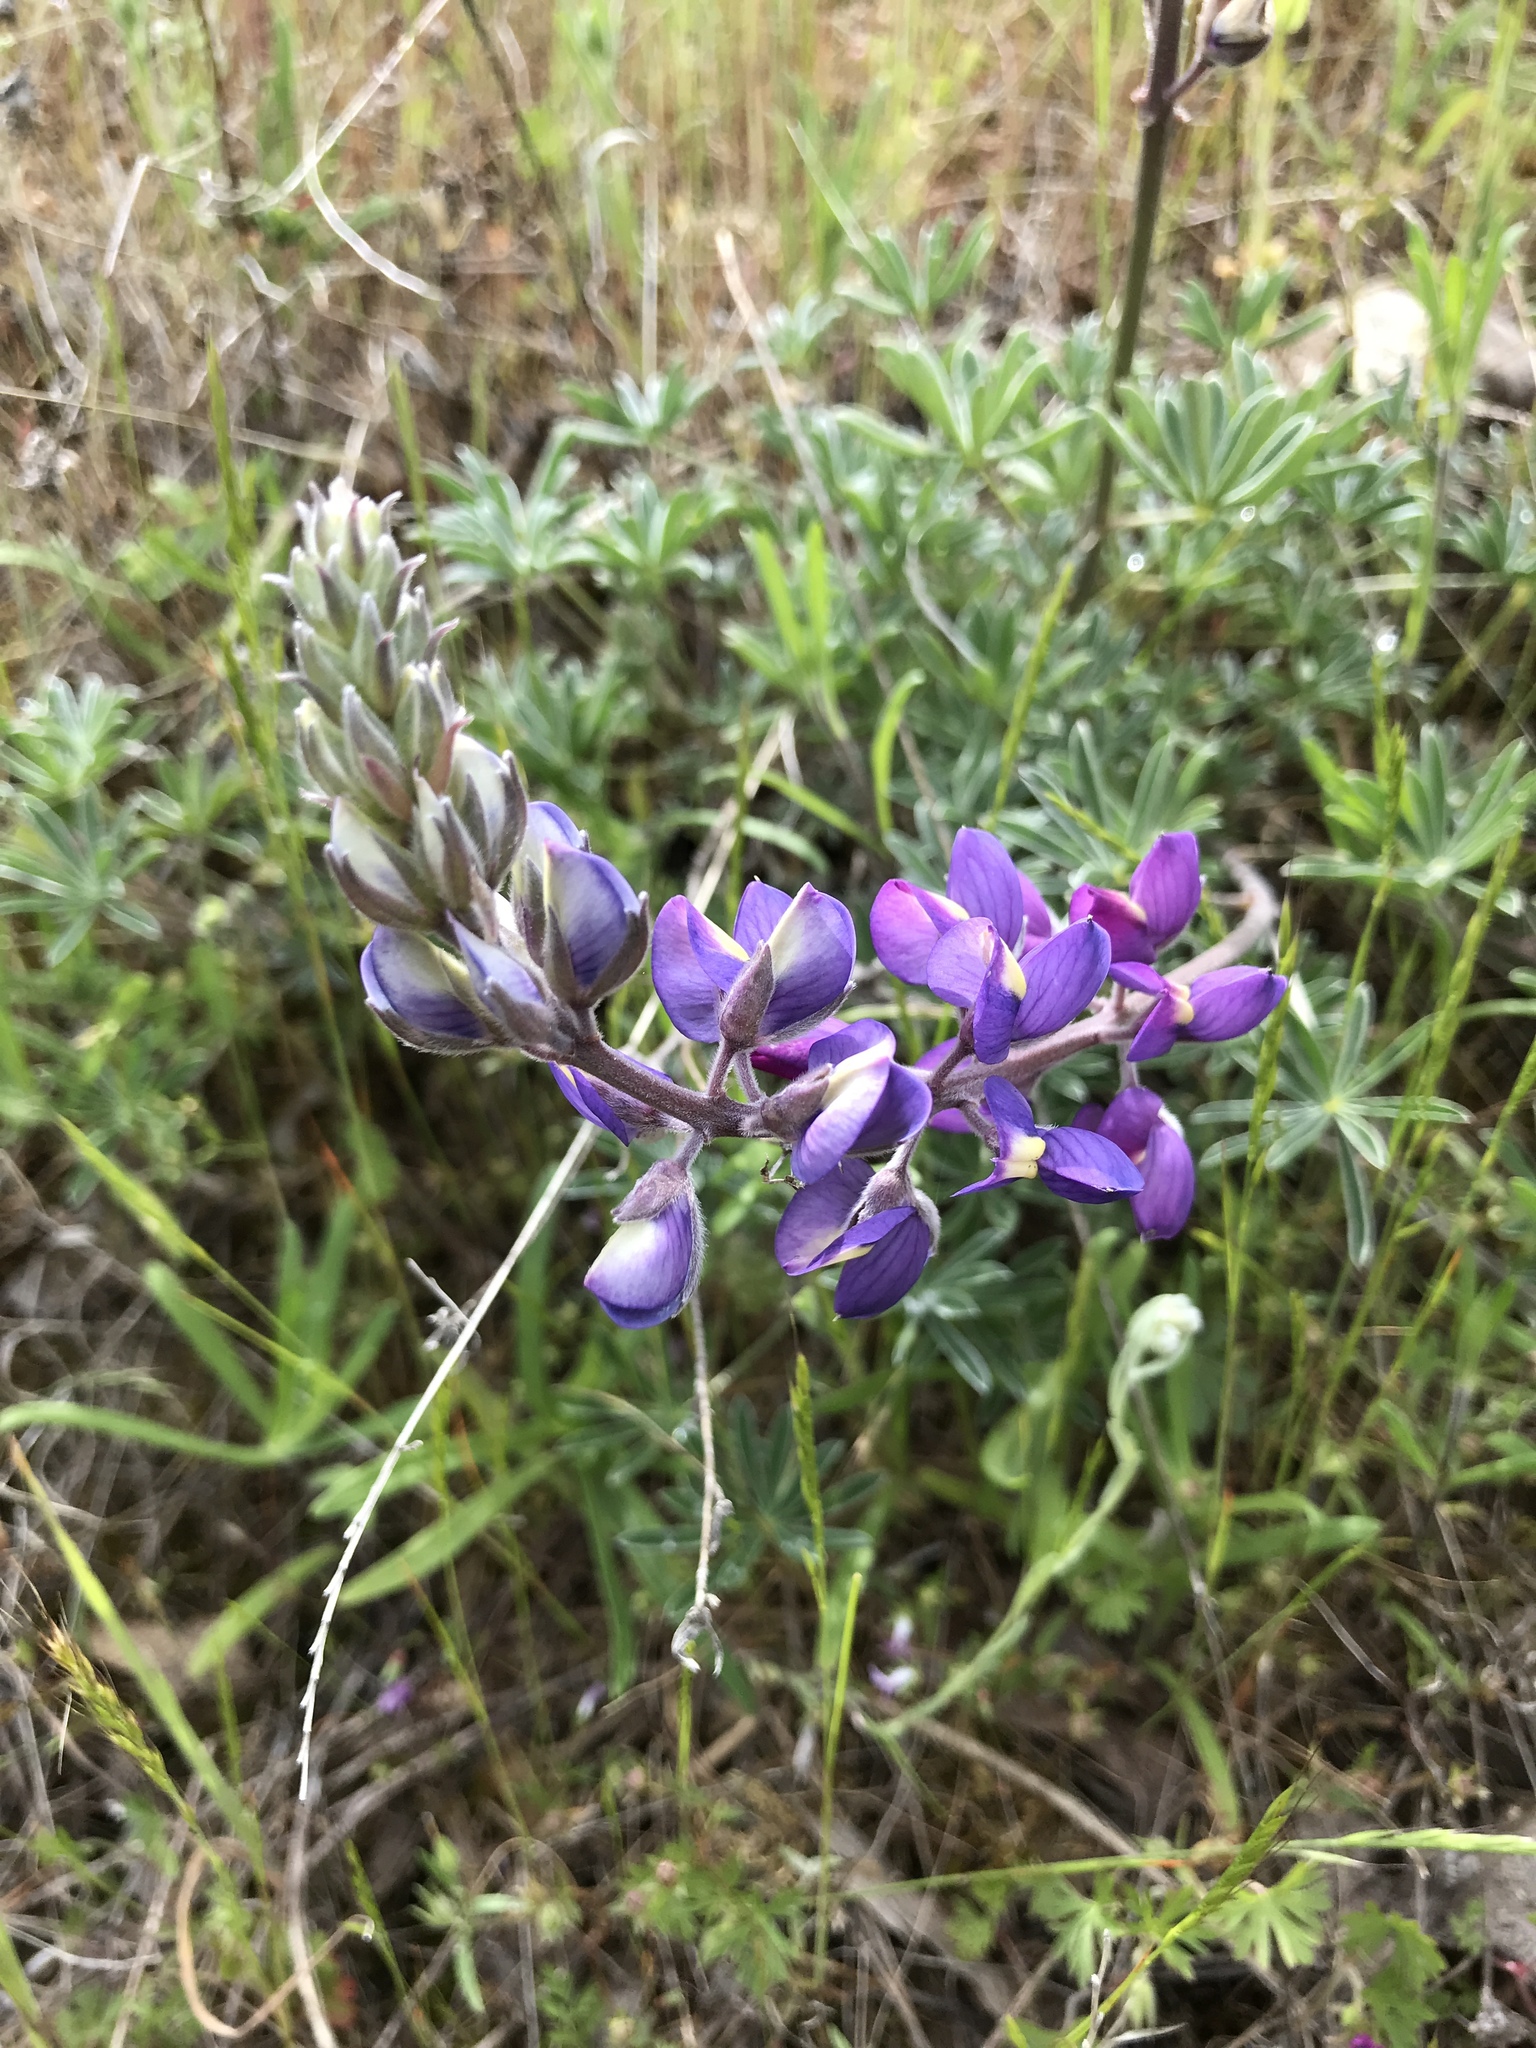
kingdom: Plantae
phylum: Tracheophyta
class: Magnoliopsida
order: Fabales
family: Fabaceae
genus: Lupinus
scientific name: Lupinus albifrons
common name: Foothill lupine
